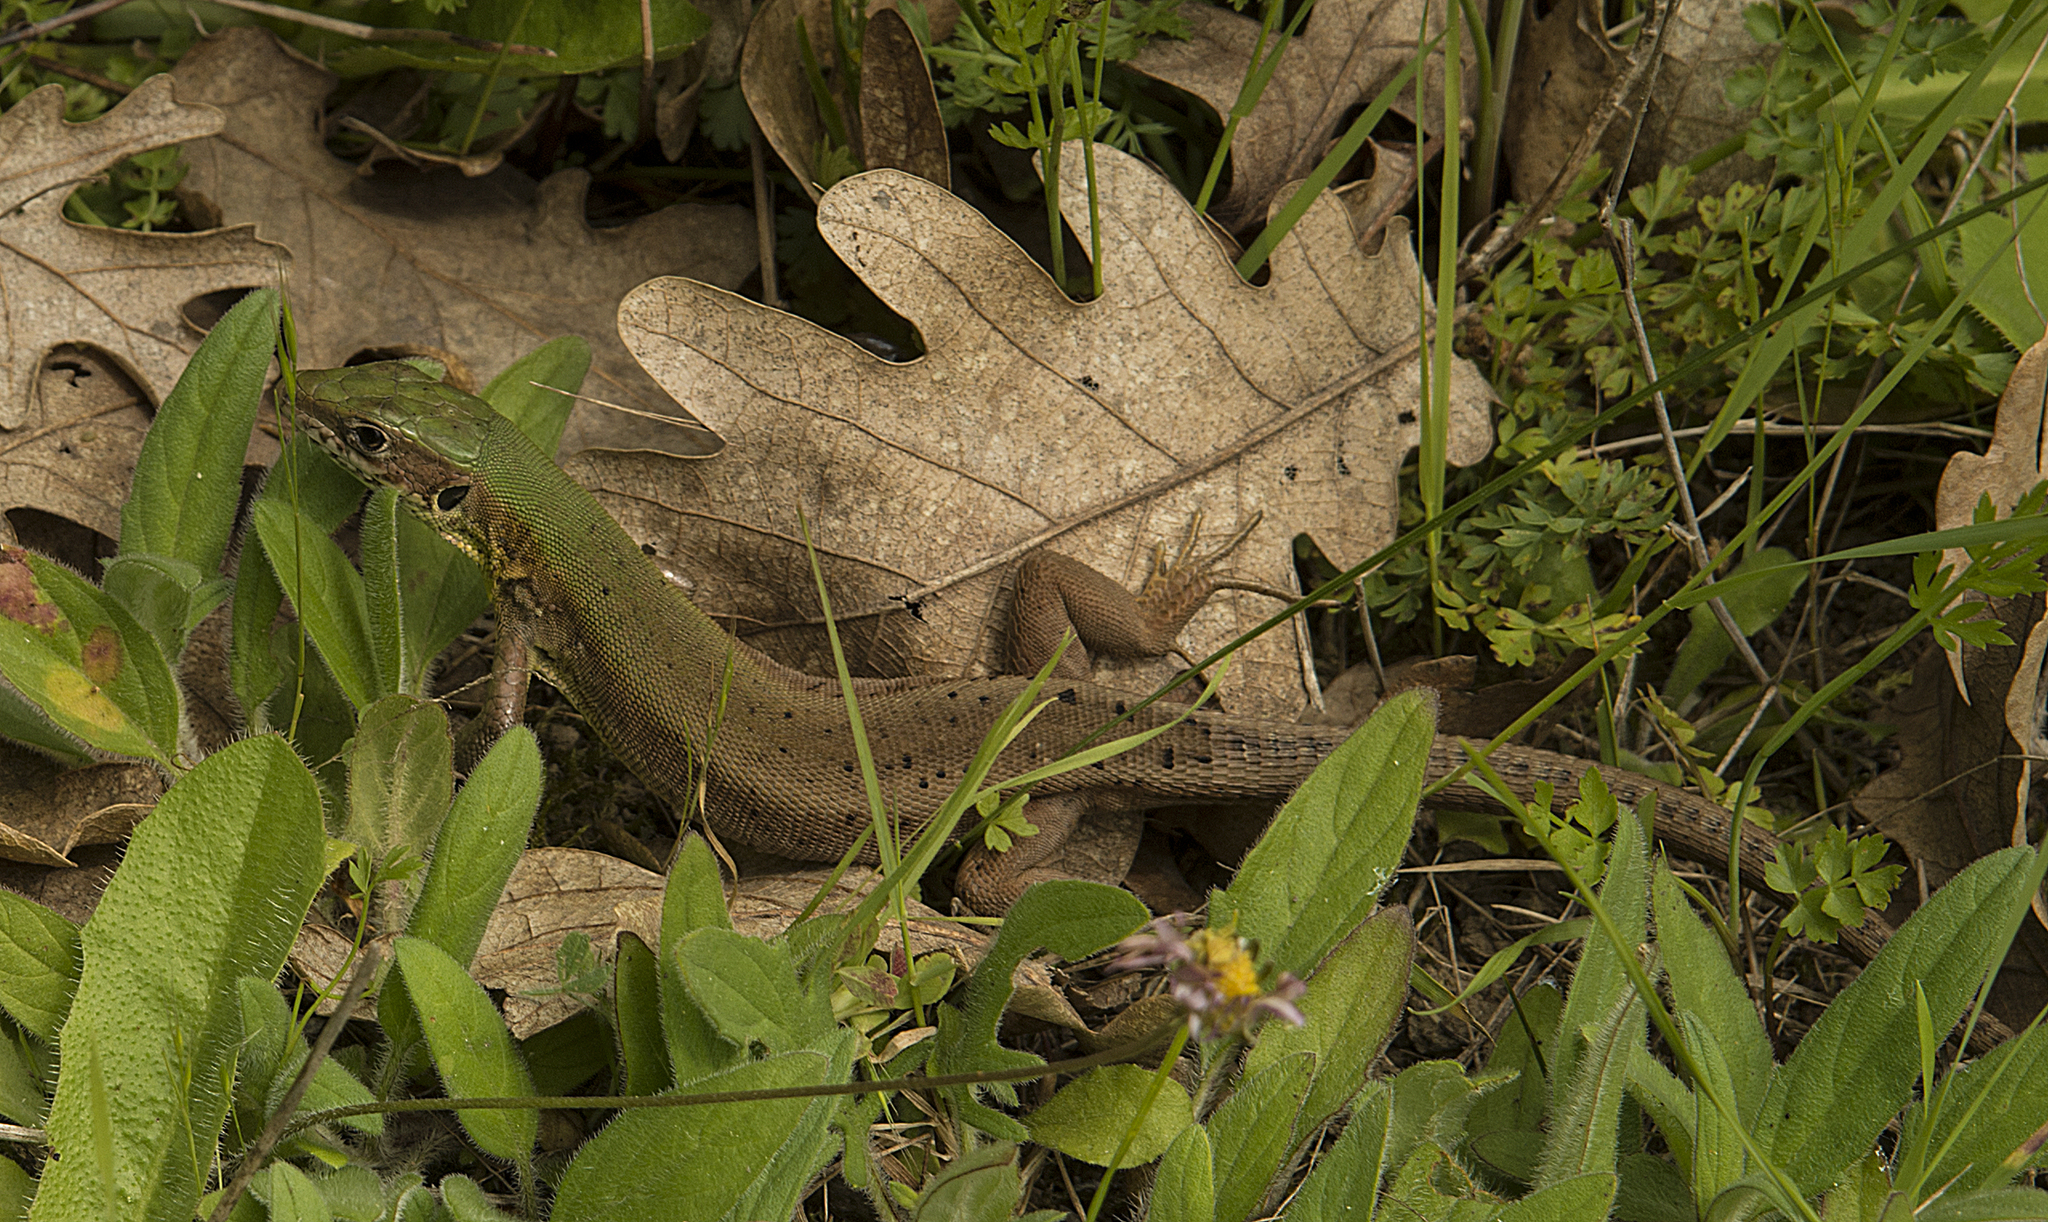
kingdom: Animalia
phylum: Chordata
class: Squamata
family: Lacertidae
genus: Lacerta
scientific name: Lacerta viridis
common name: European green lizard
